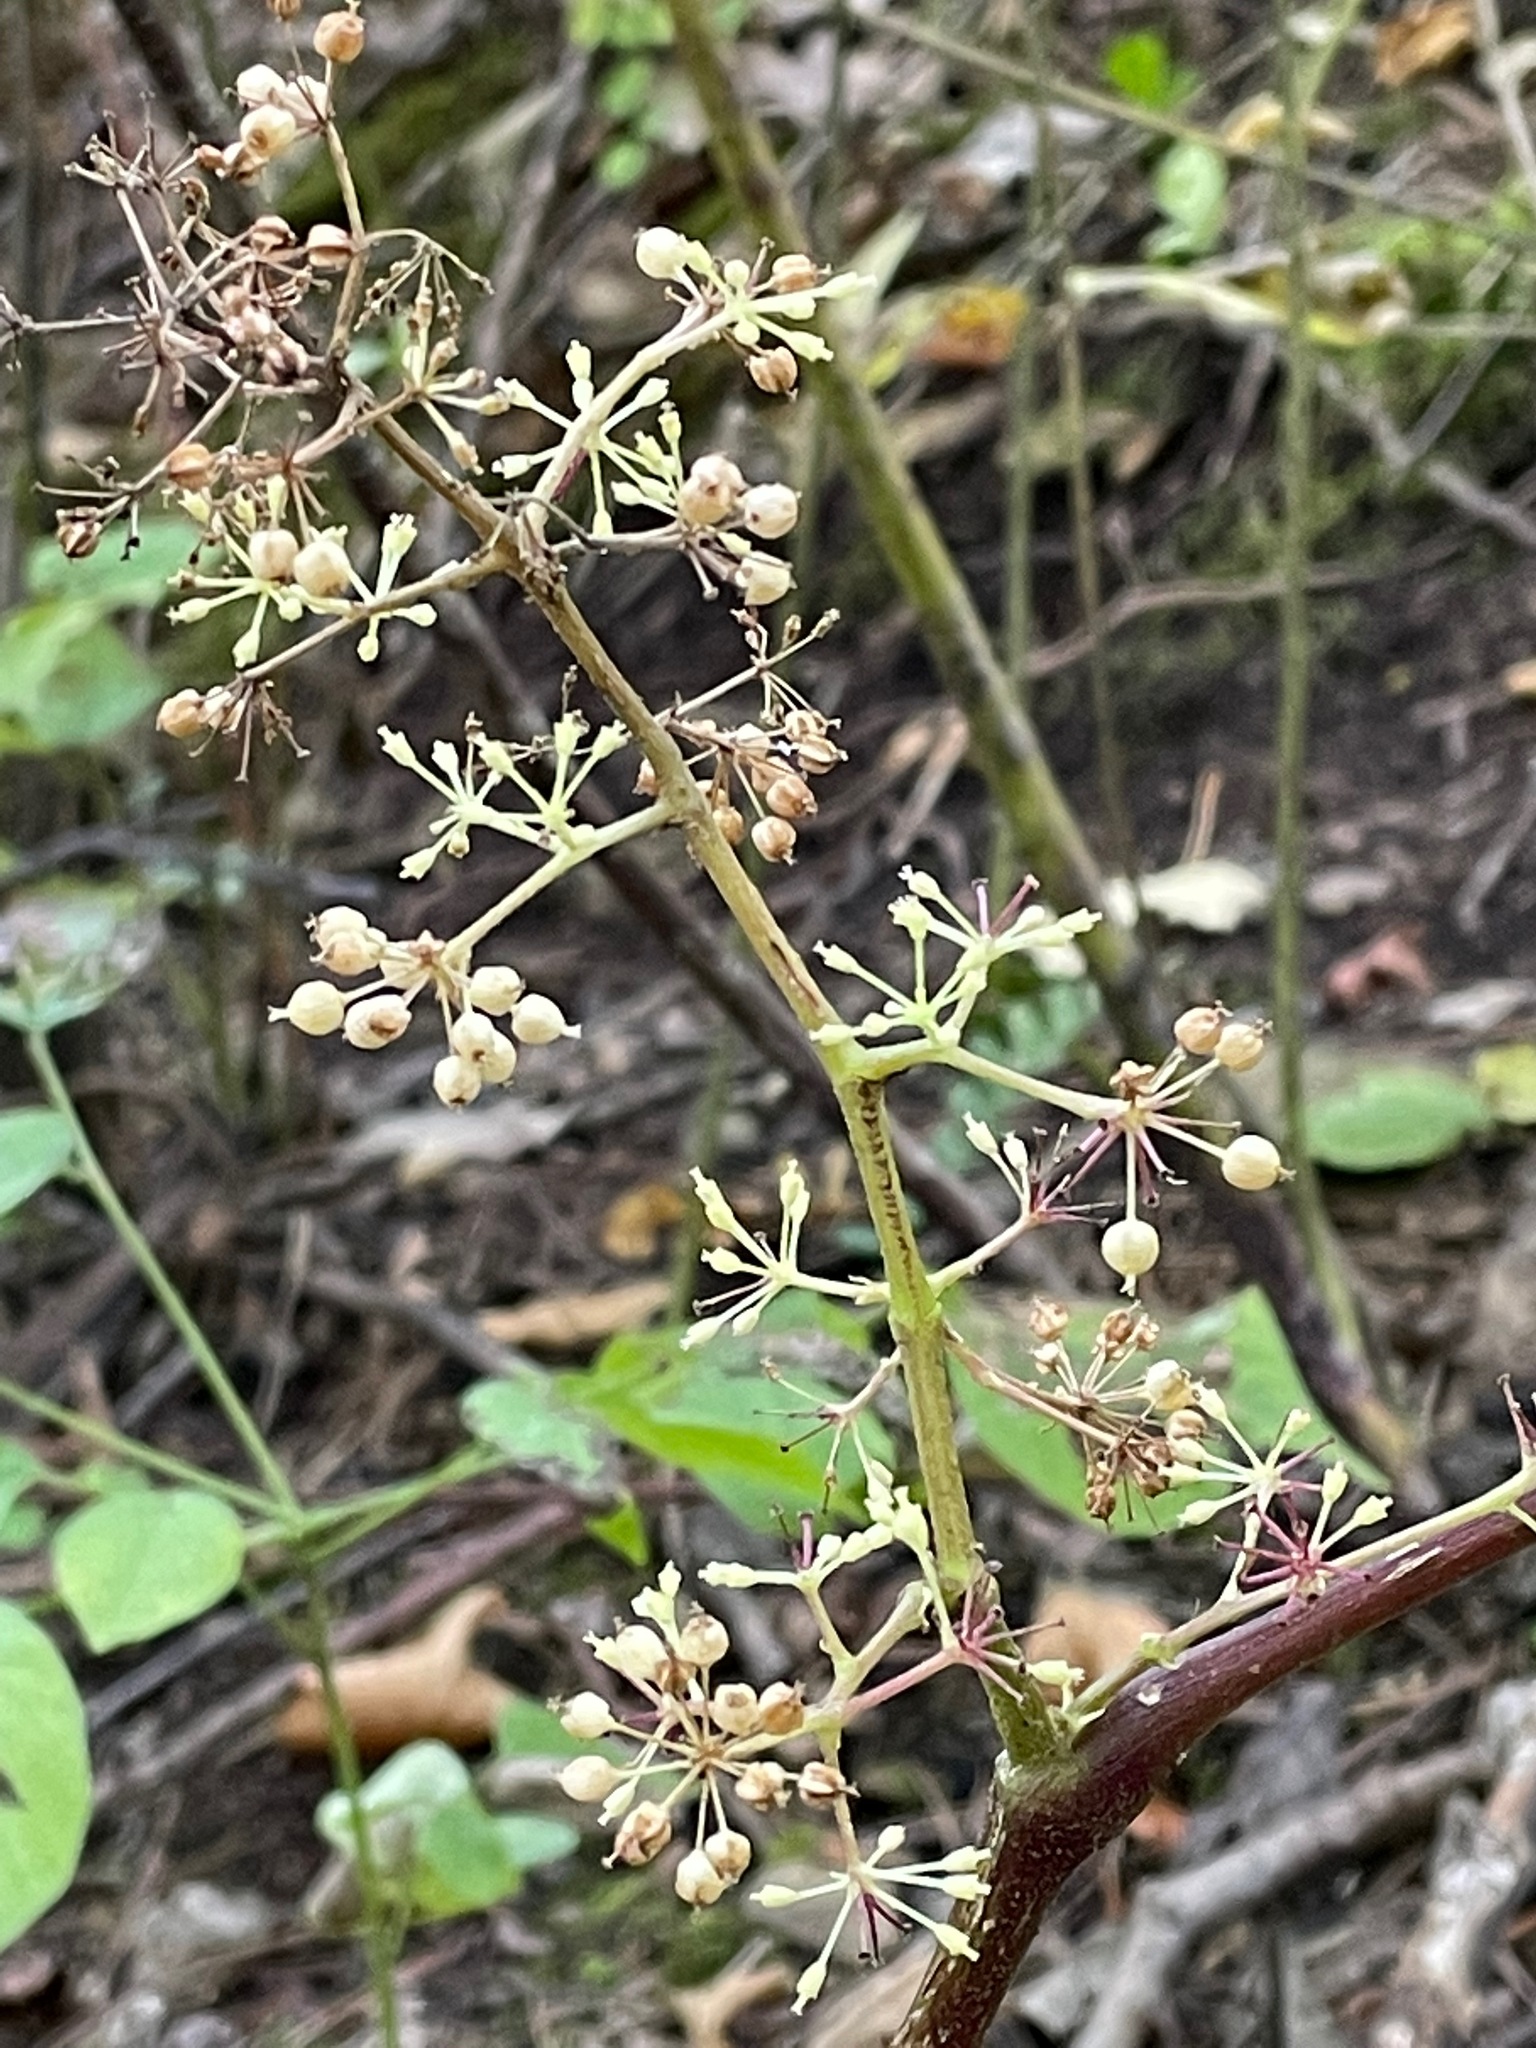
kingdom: Plantae
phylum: Tracheophyta
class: Magnoliopsida
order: Apiales
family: Araliaceae
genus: Aralia
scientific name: Aralia racemosa
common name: American-spikenard
